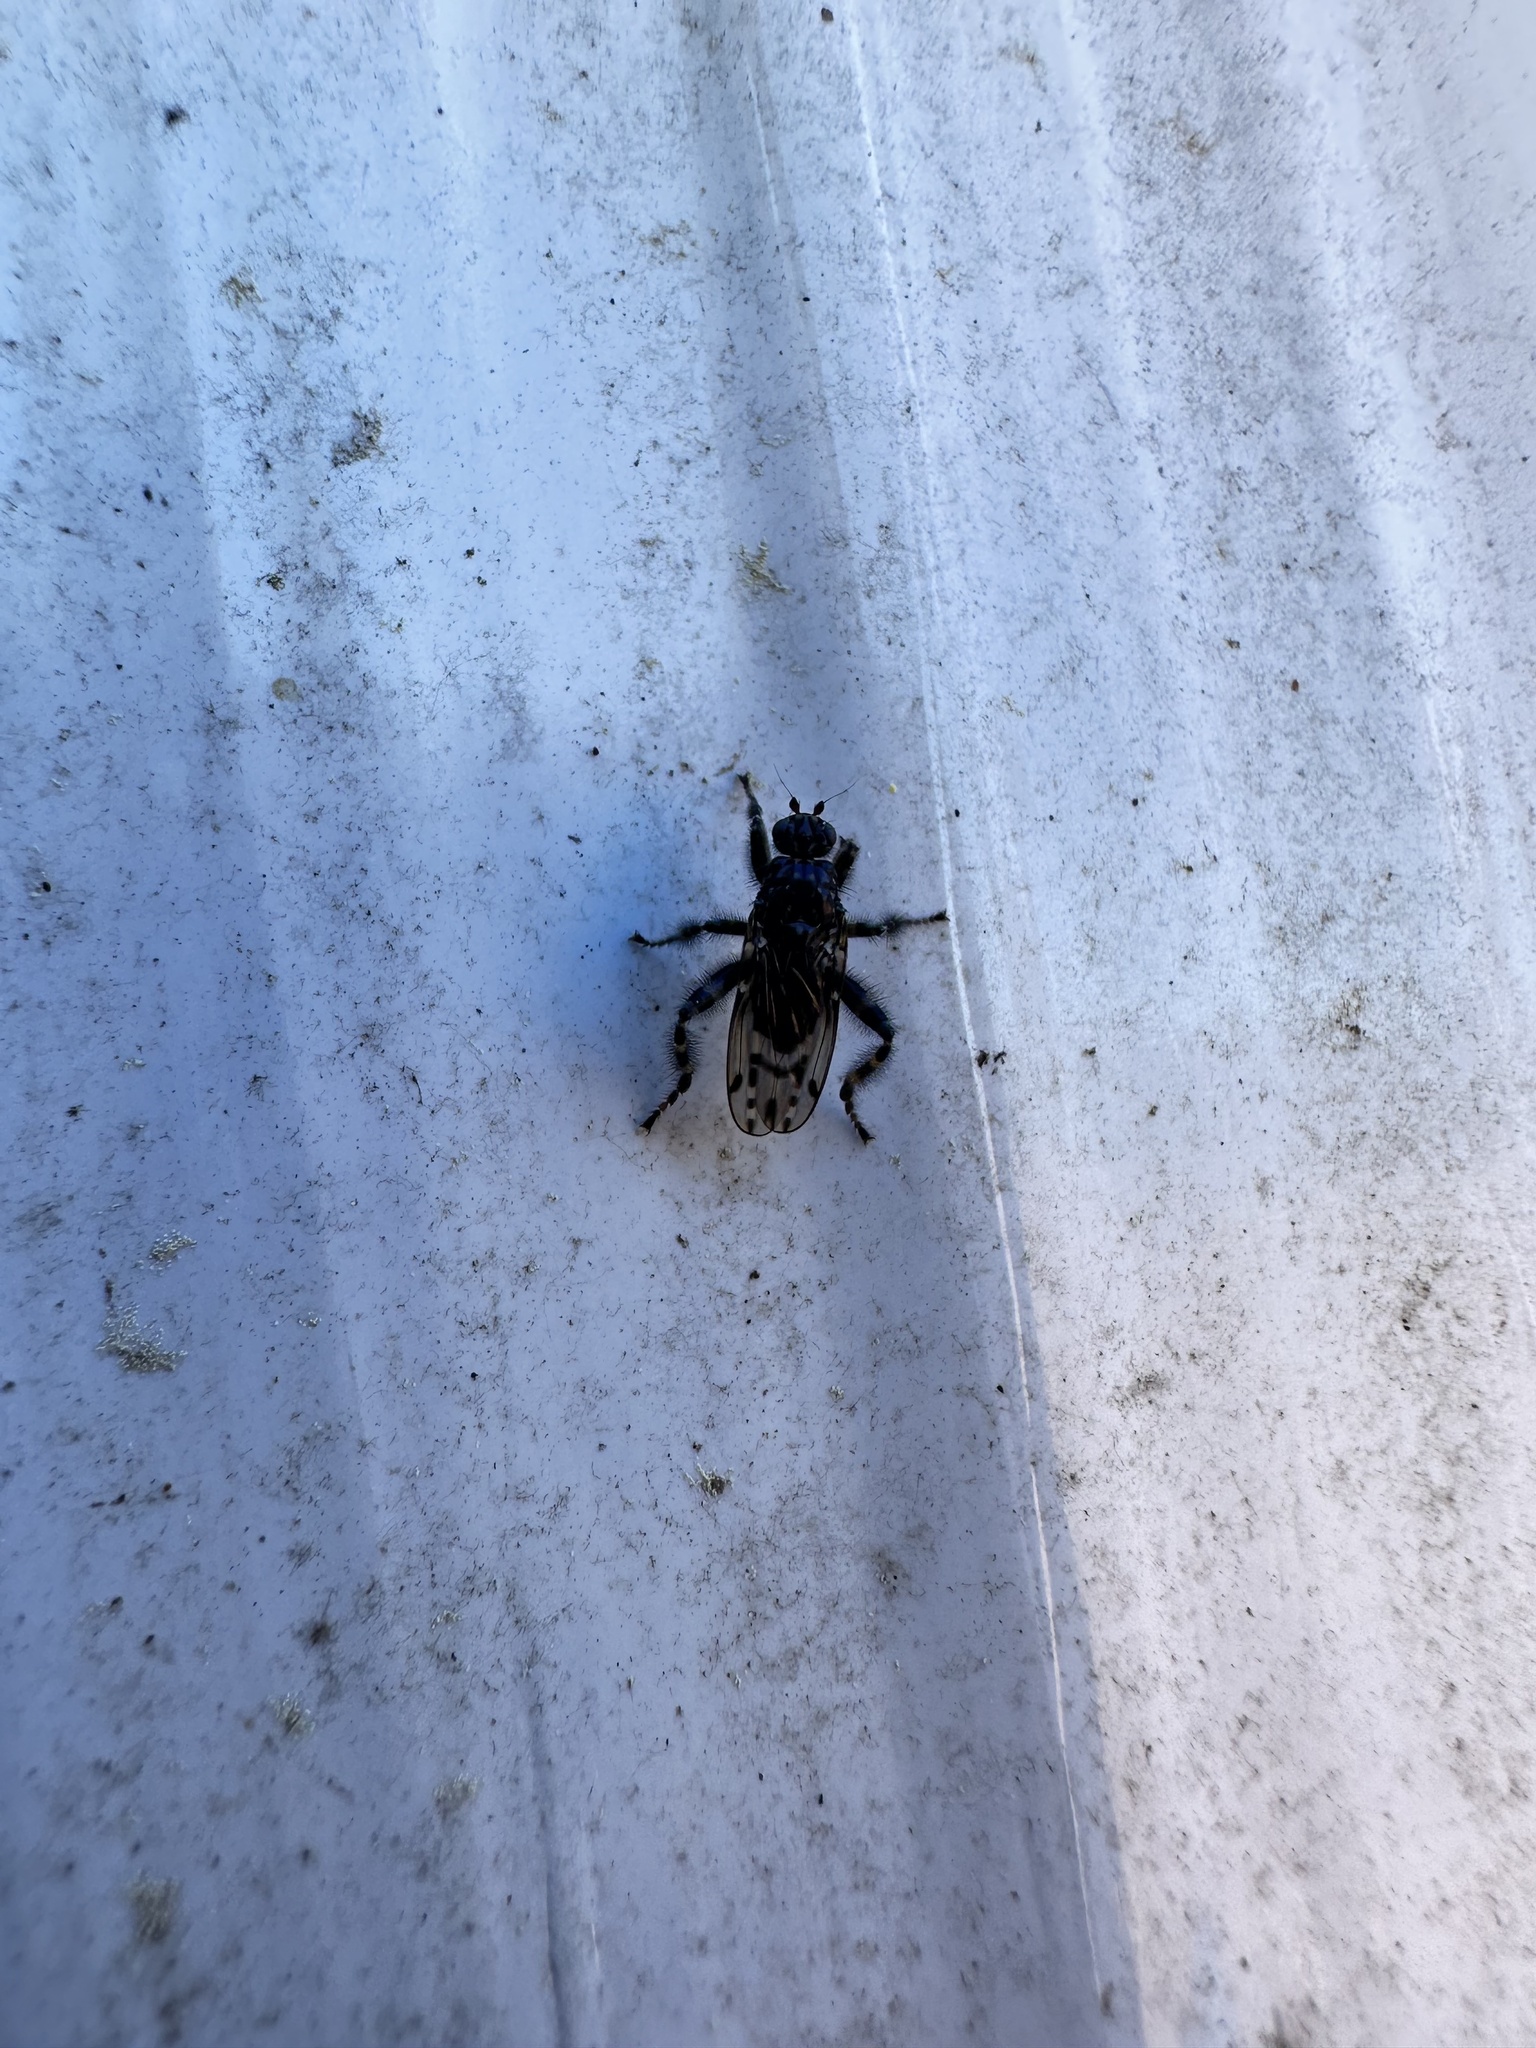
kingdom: Animalia
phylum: Arthropoda
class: Insecta
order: Diptera
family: Sphaeroceridae
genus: Maculantrops
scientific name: Maculantrops hirtipes
